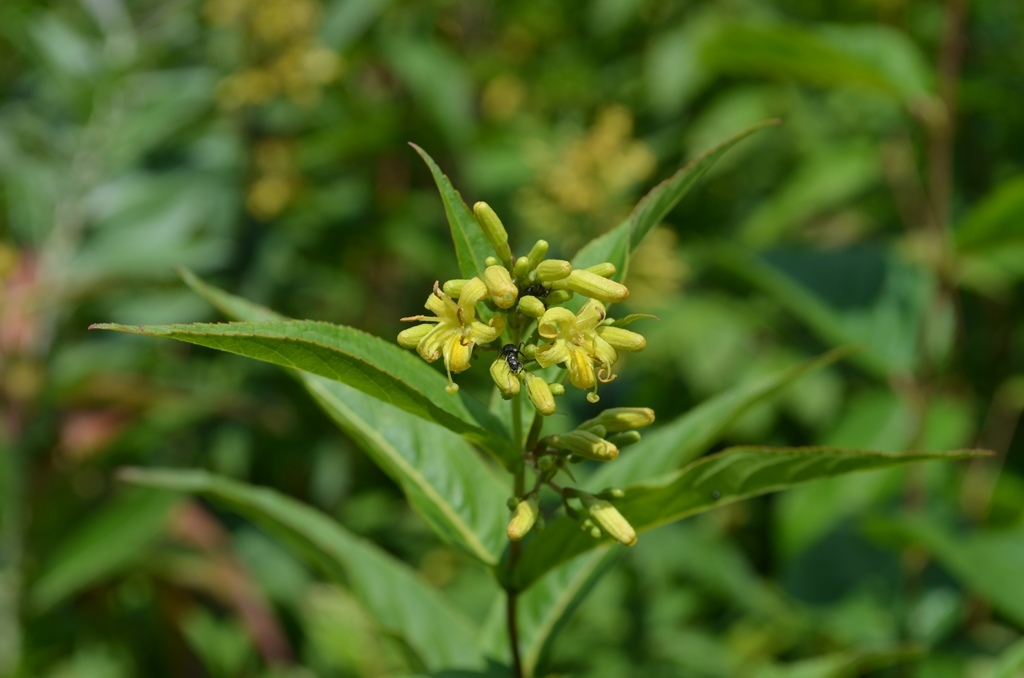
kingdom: Plantae
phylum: Tracheophyta
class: Magnoliopsida
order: Dipsacales
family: Caprifoliaceae
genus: Diervilla
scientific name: Diervilla sessilifolia
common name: Bush-honeysuckle
